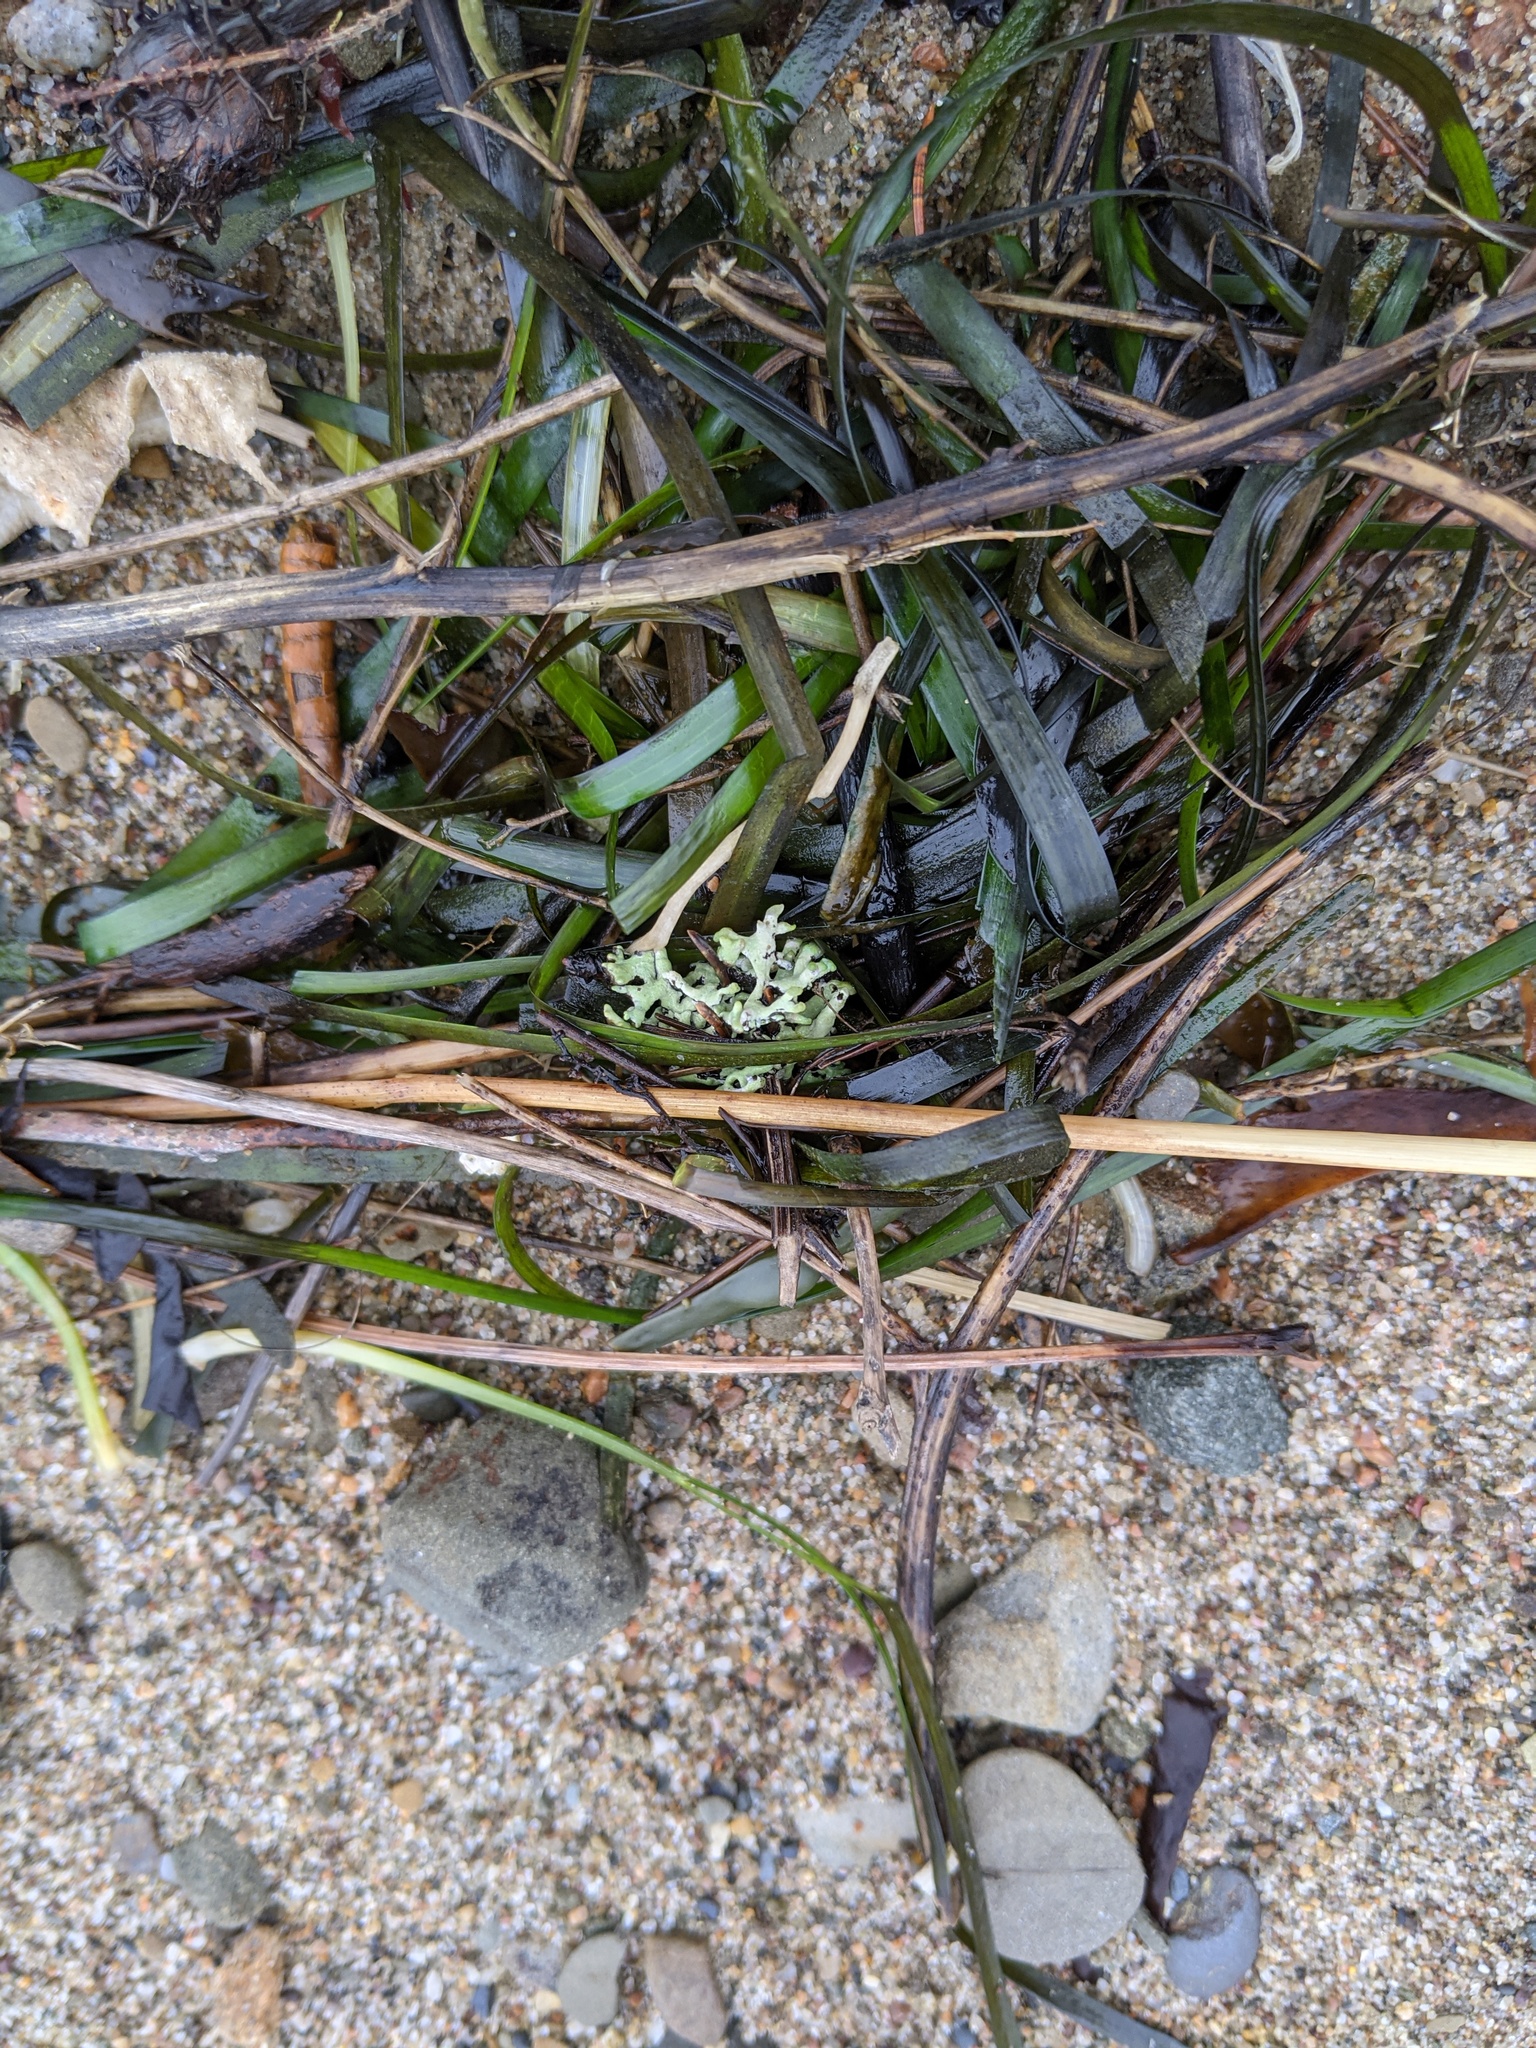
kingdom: Plantae
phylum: Tracheophyta
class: Liliopsida
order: Alismatales
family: Zosteraceae
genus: Zostera
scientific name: Zostera marina
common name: Eelgrass
